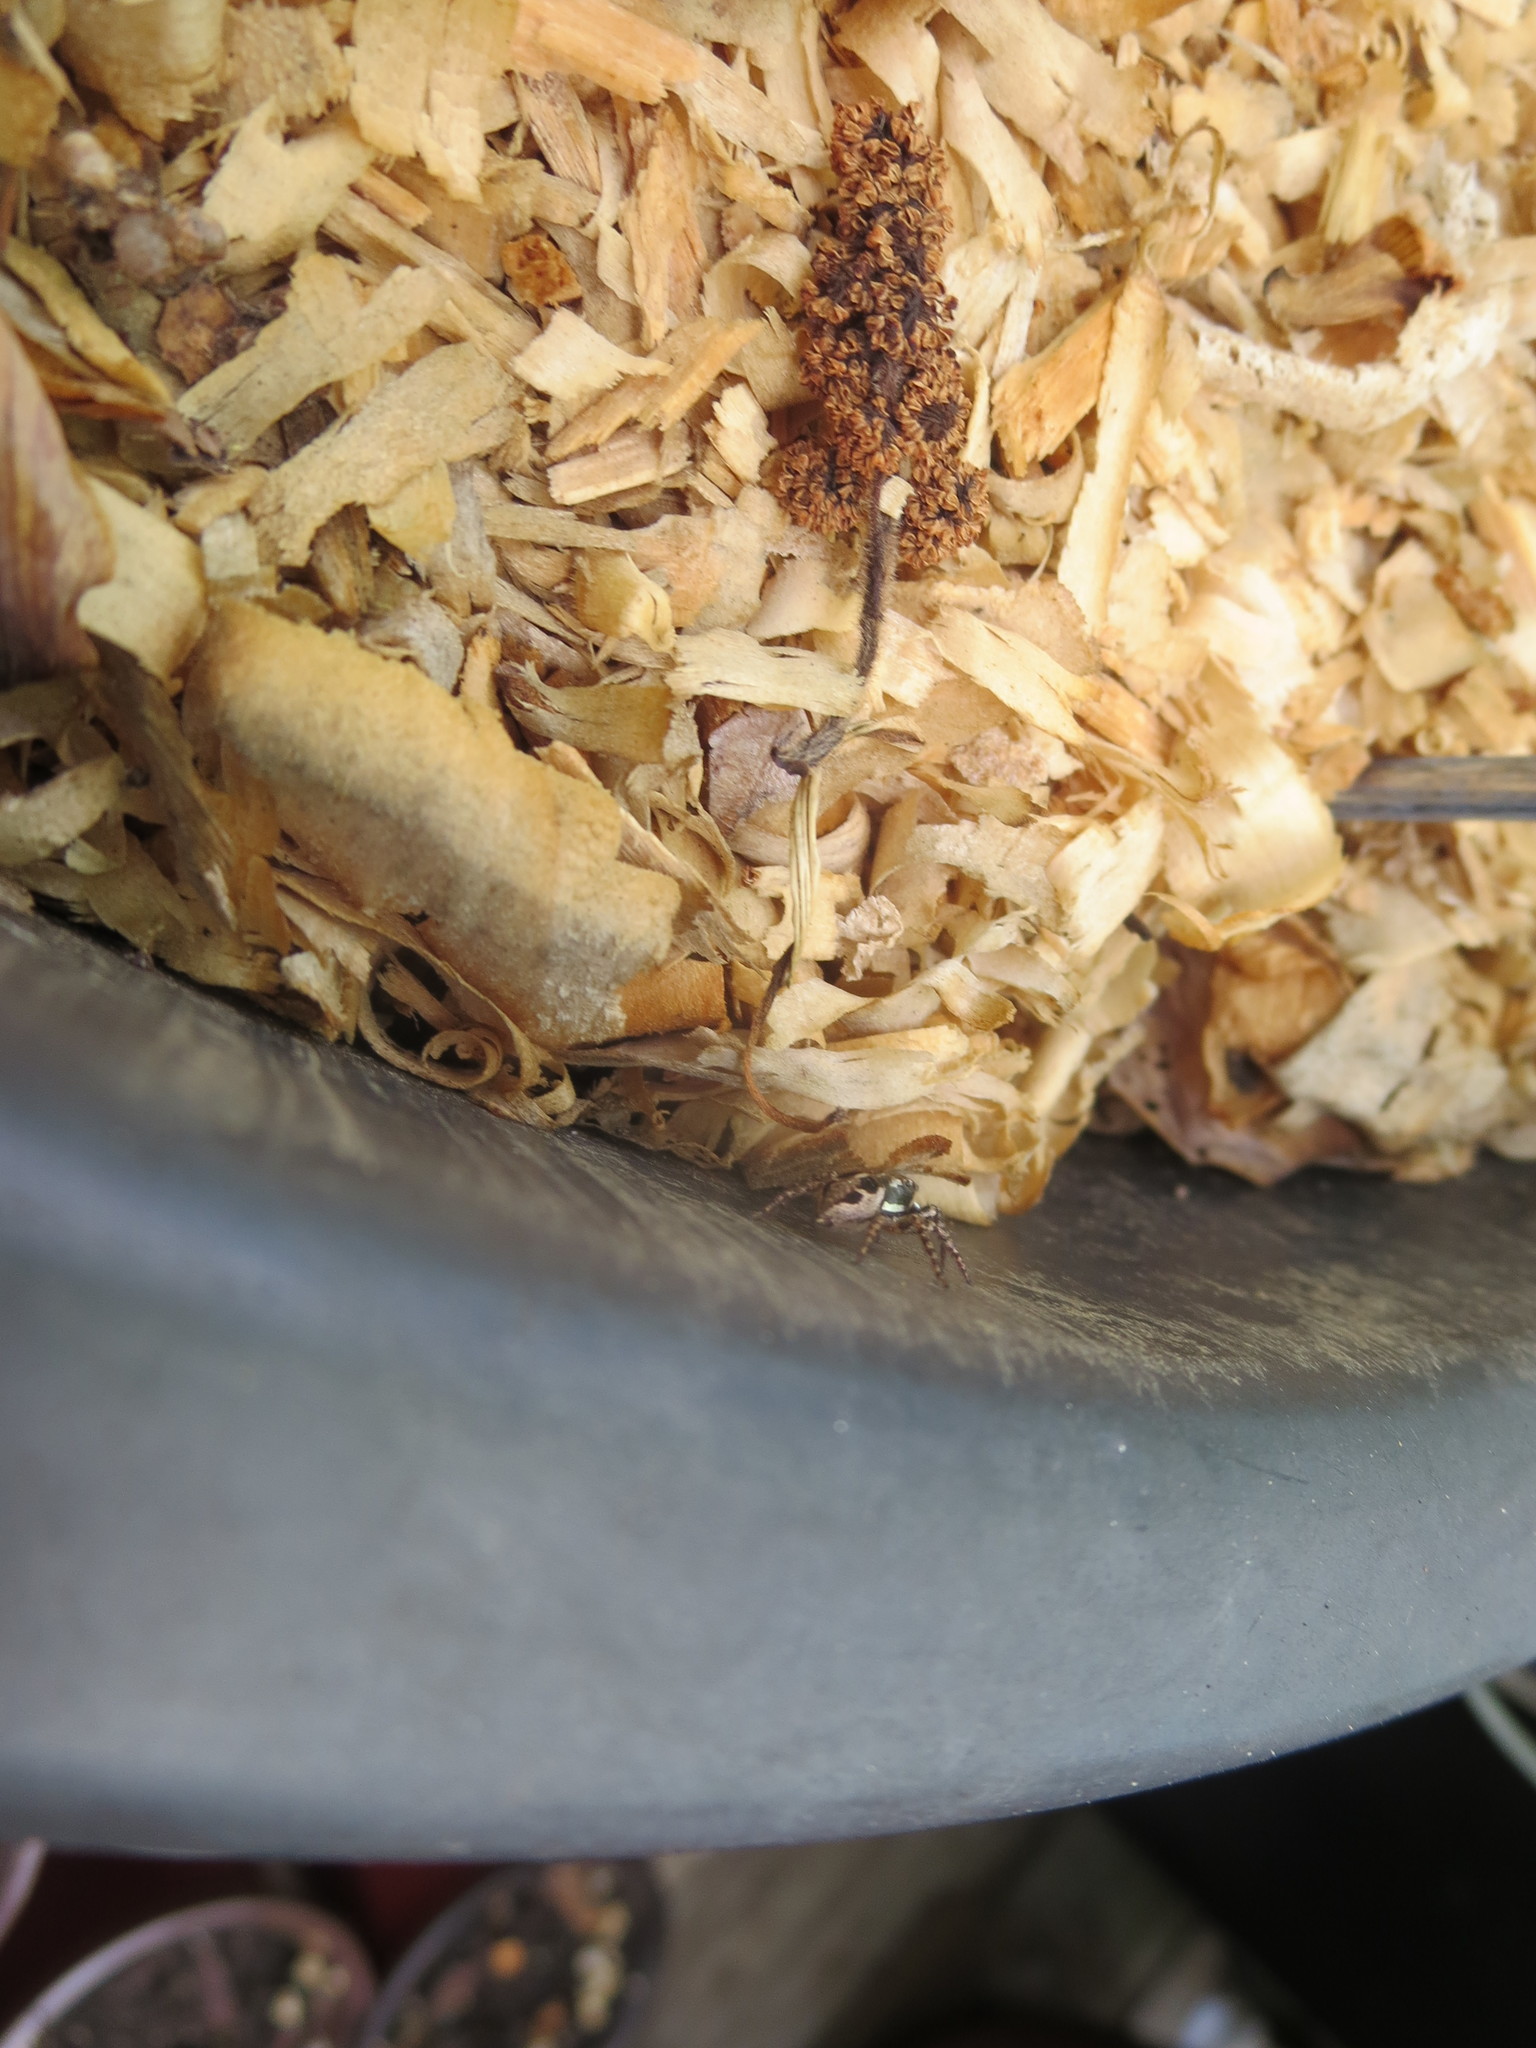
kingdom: Animalia
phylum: Arthropoda
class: Arachnida
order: Araneae
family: Salticidae
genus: Anasaitis
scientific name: Anasaitis canosa
